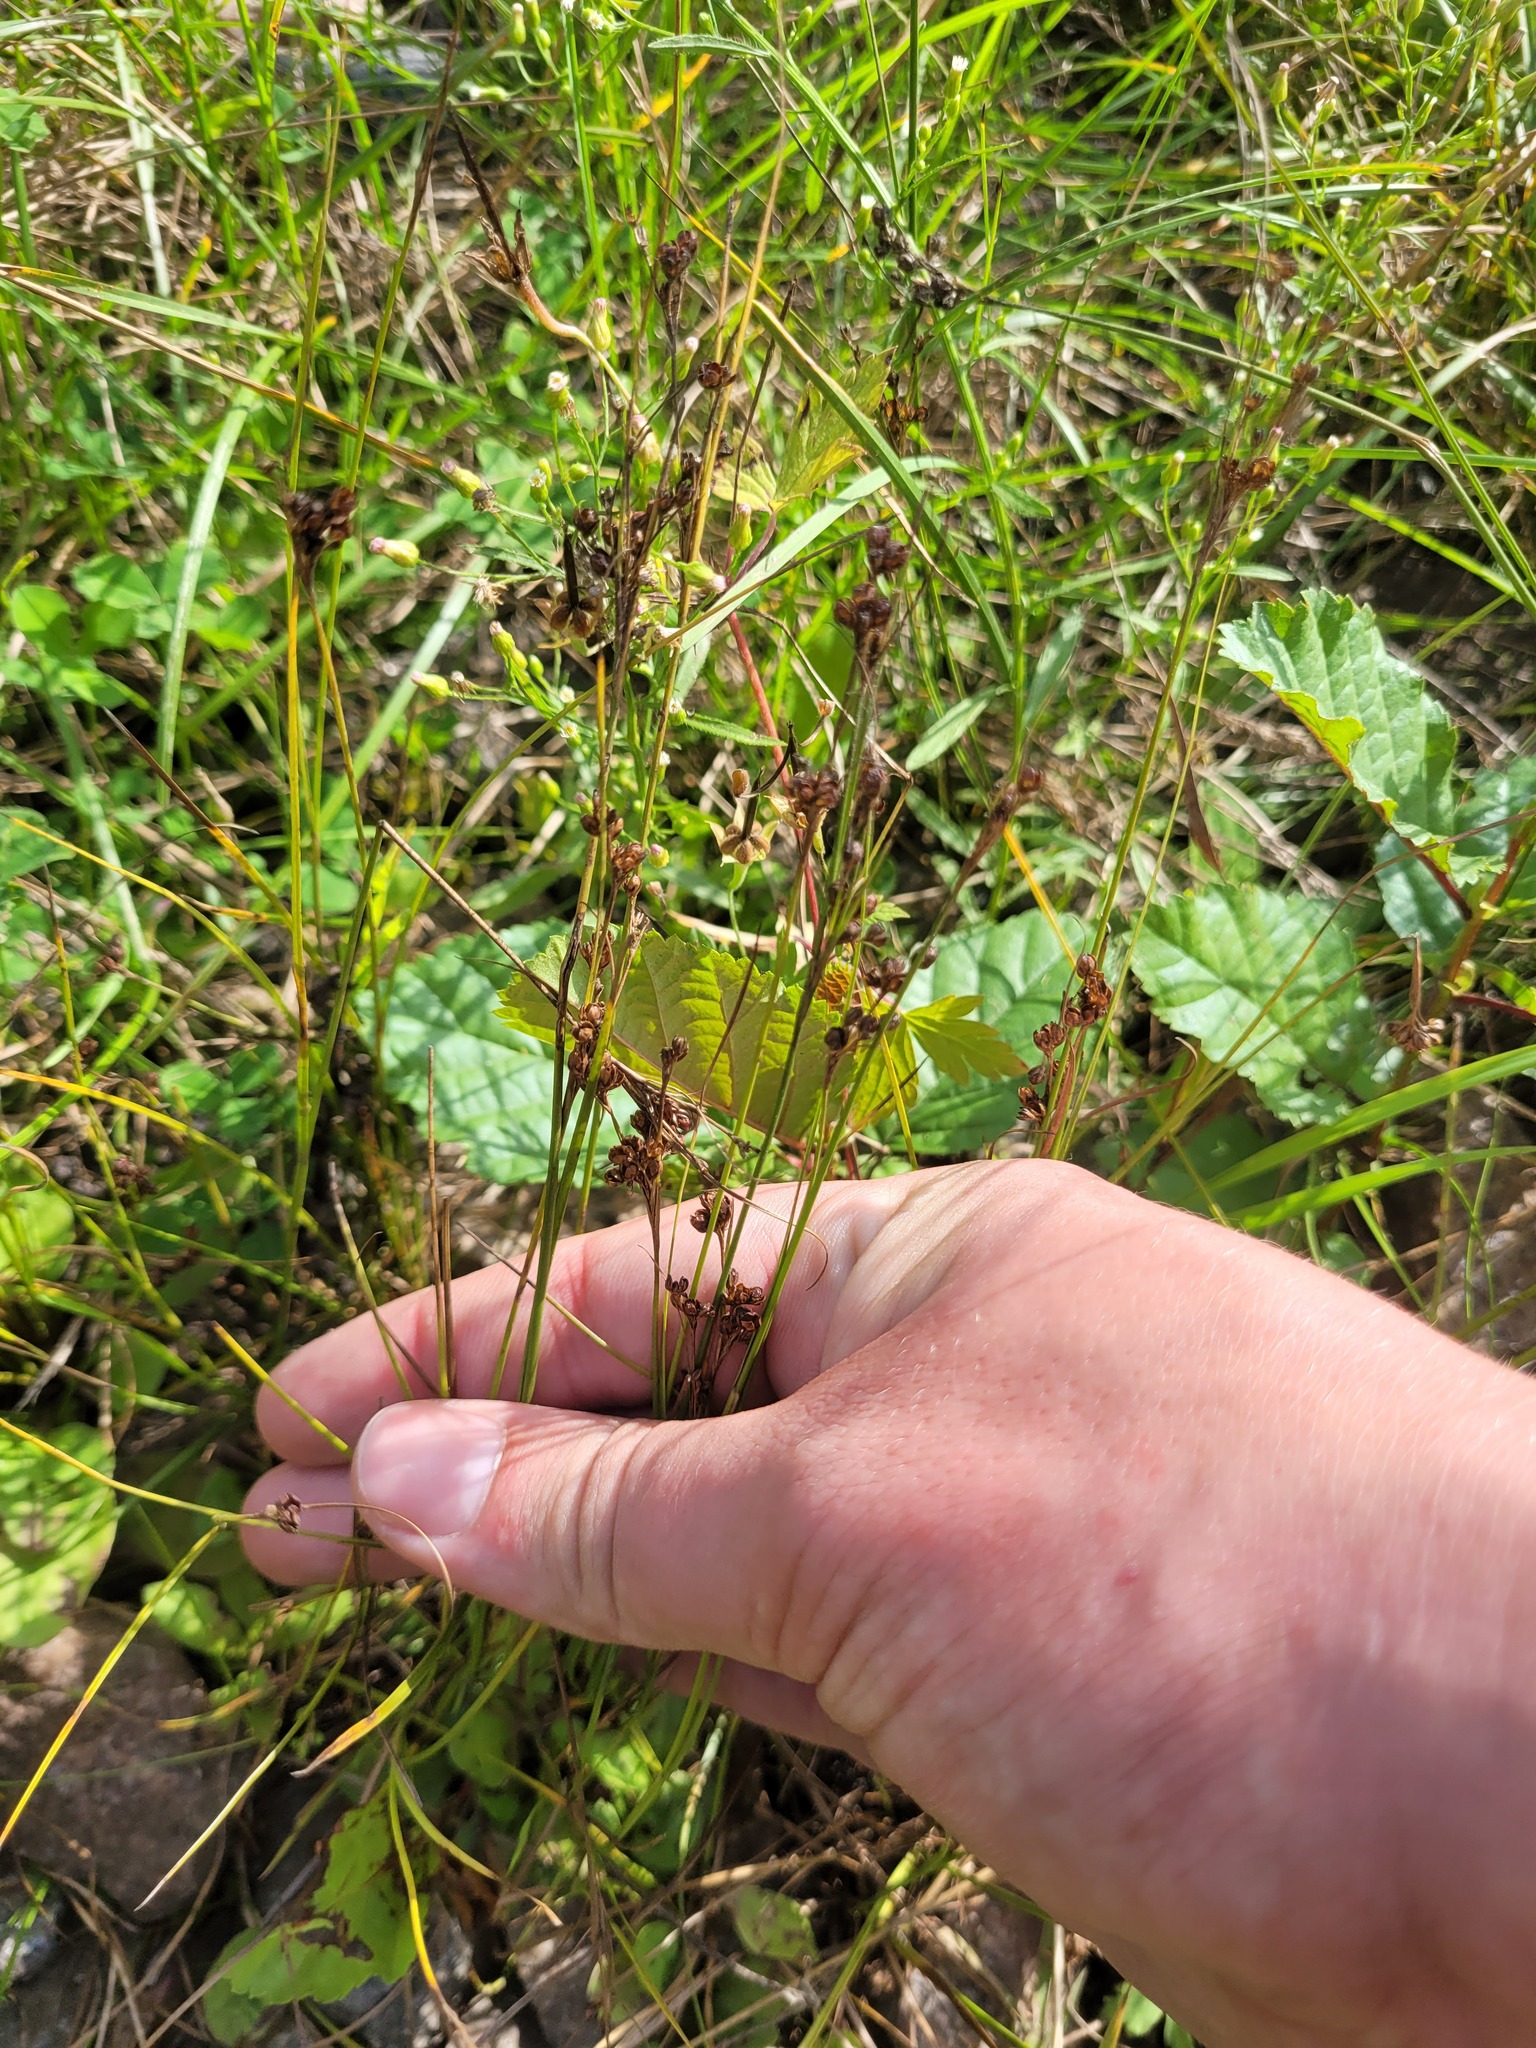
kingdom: Plantae
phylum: Tracheophyta
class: Liliopsida
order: Poales
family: Juncaceae
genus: Juncus
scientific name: Juncus compressus
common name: Round-fruited rush
